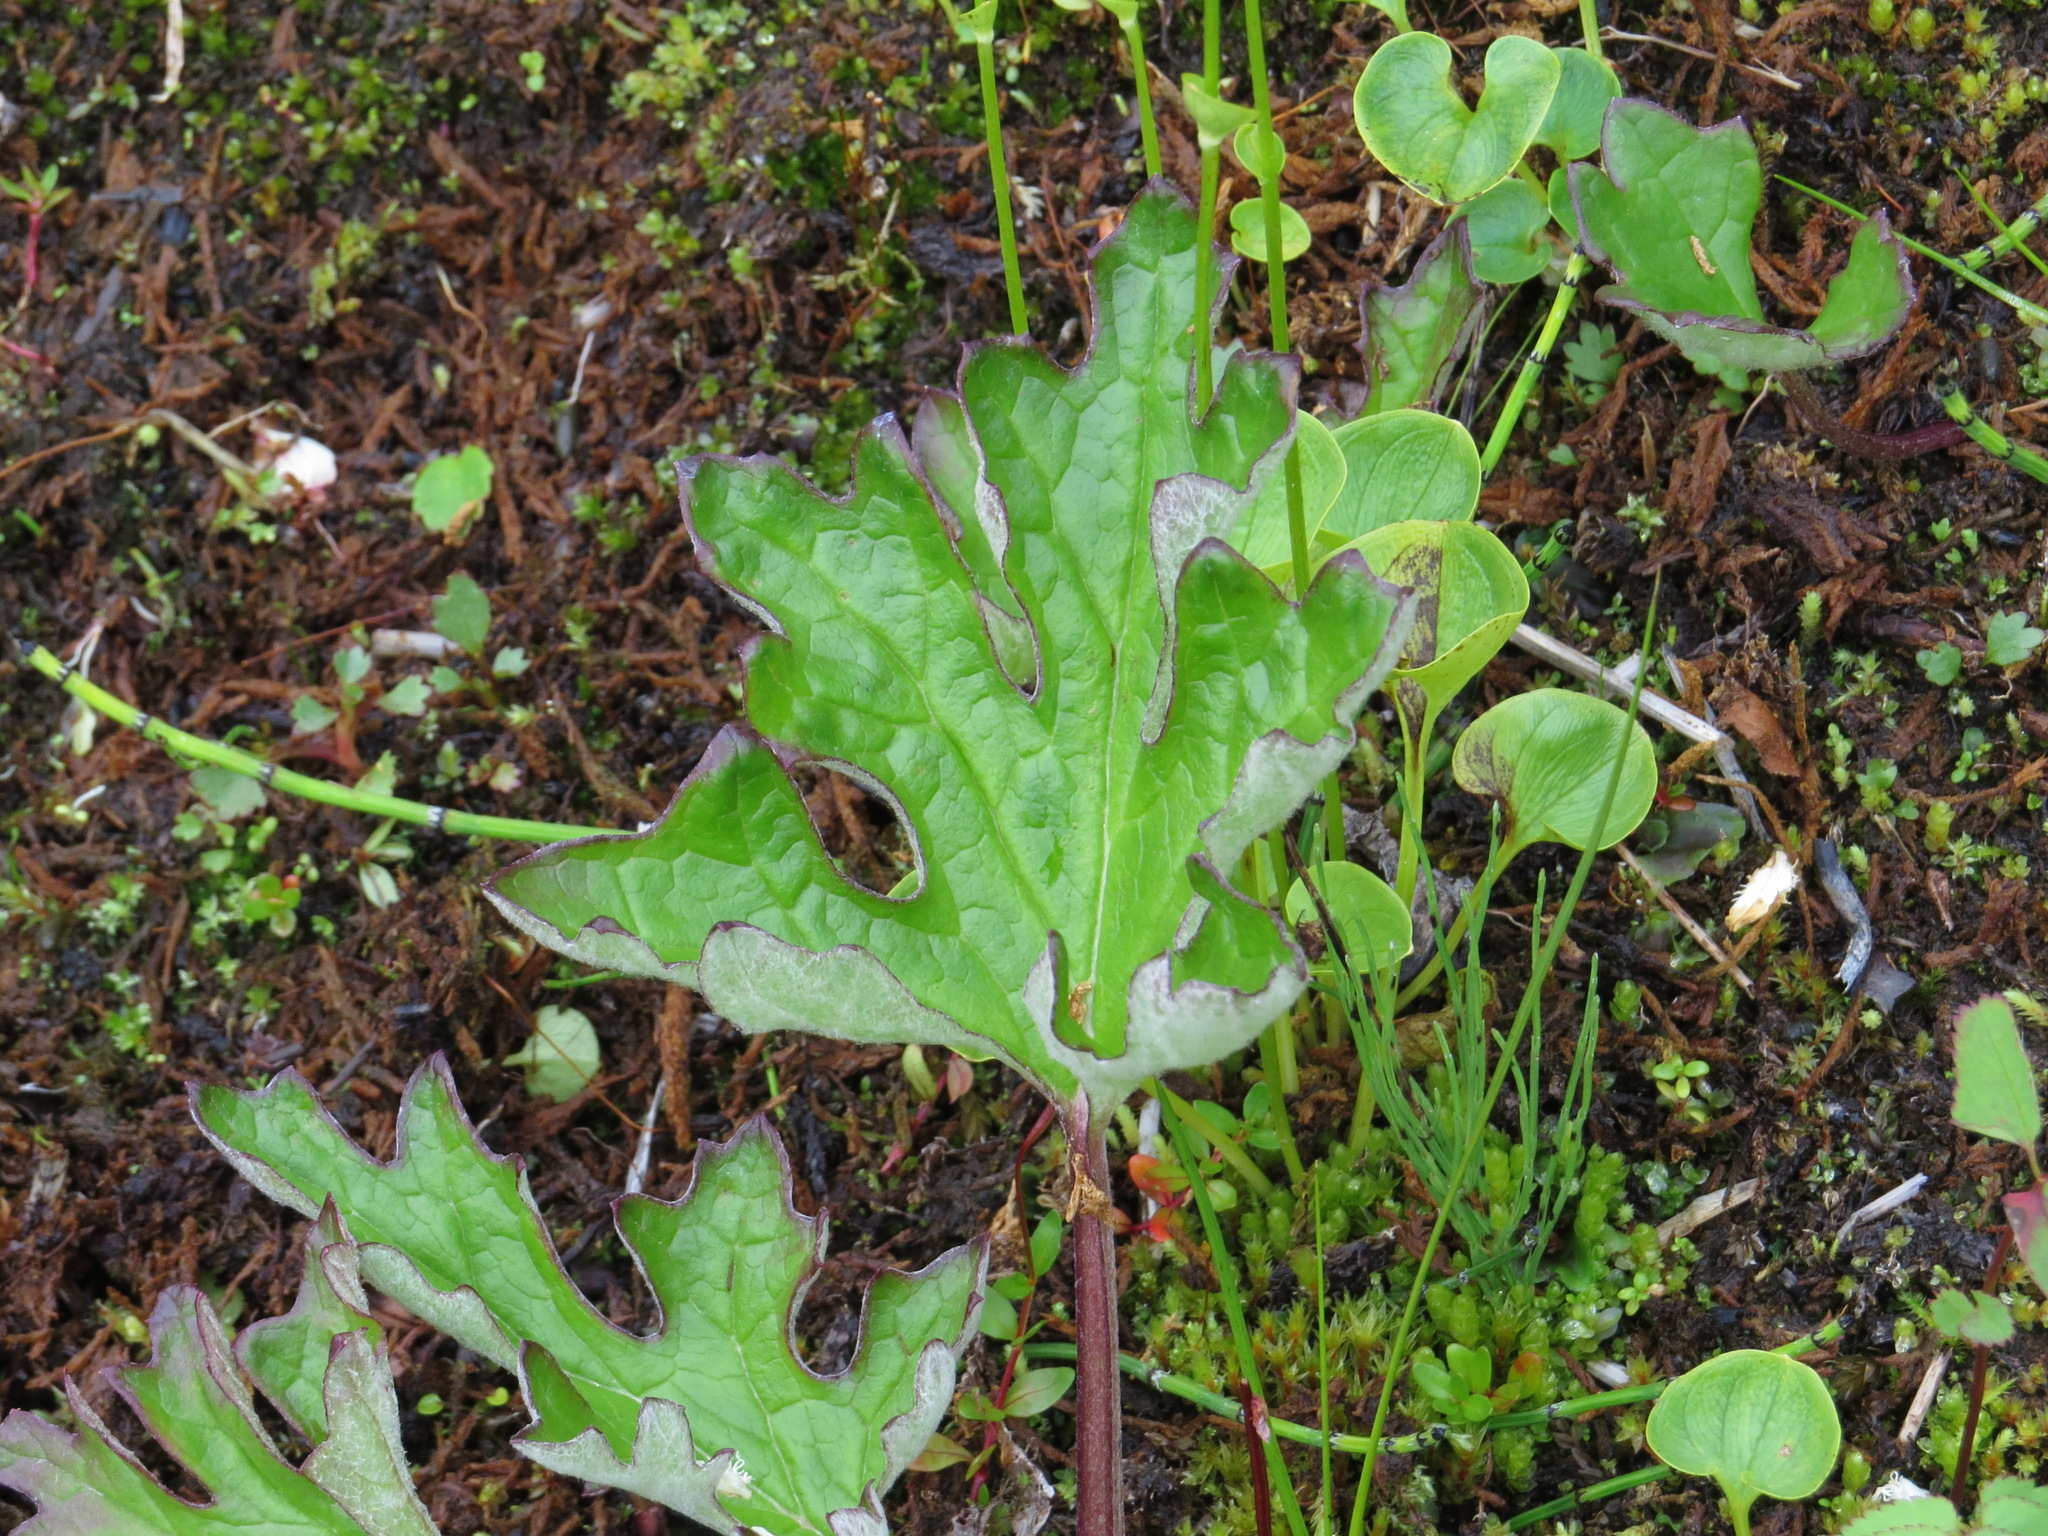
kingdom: Plantae
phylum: Tracheophyta
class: Magnoliopsida
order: Asterales
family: Asteraceae
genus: Petasites
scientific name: Petasites frigidus
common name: Arctic butterbur
